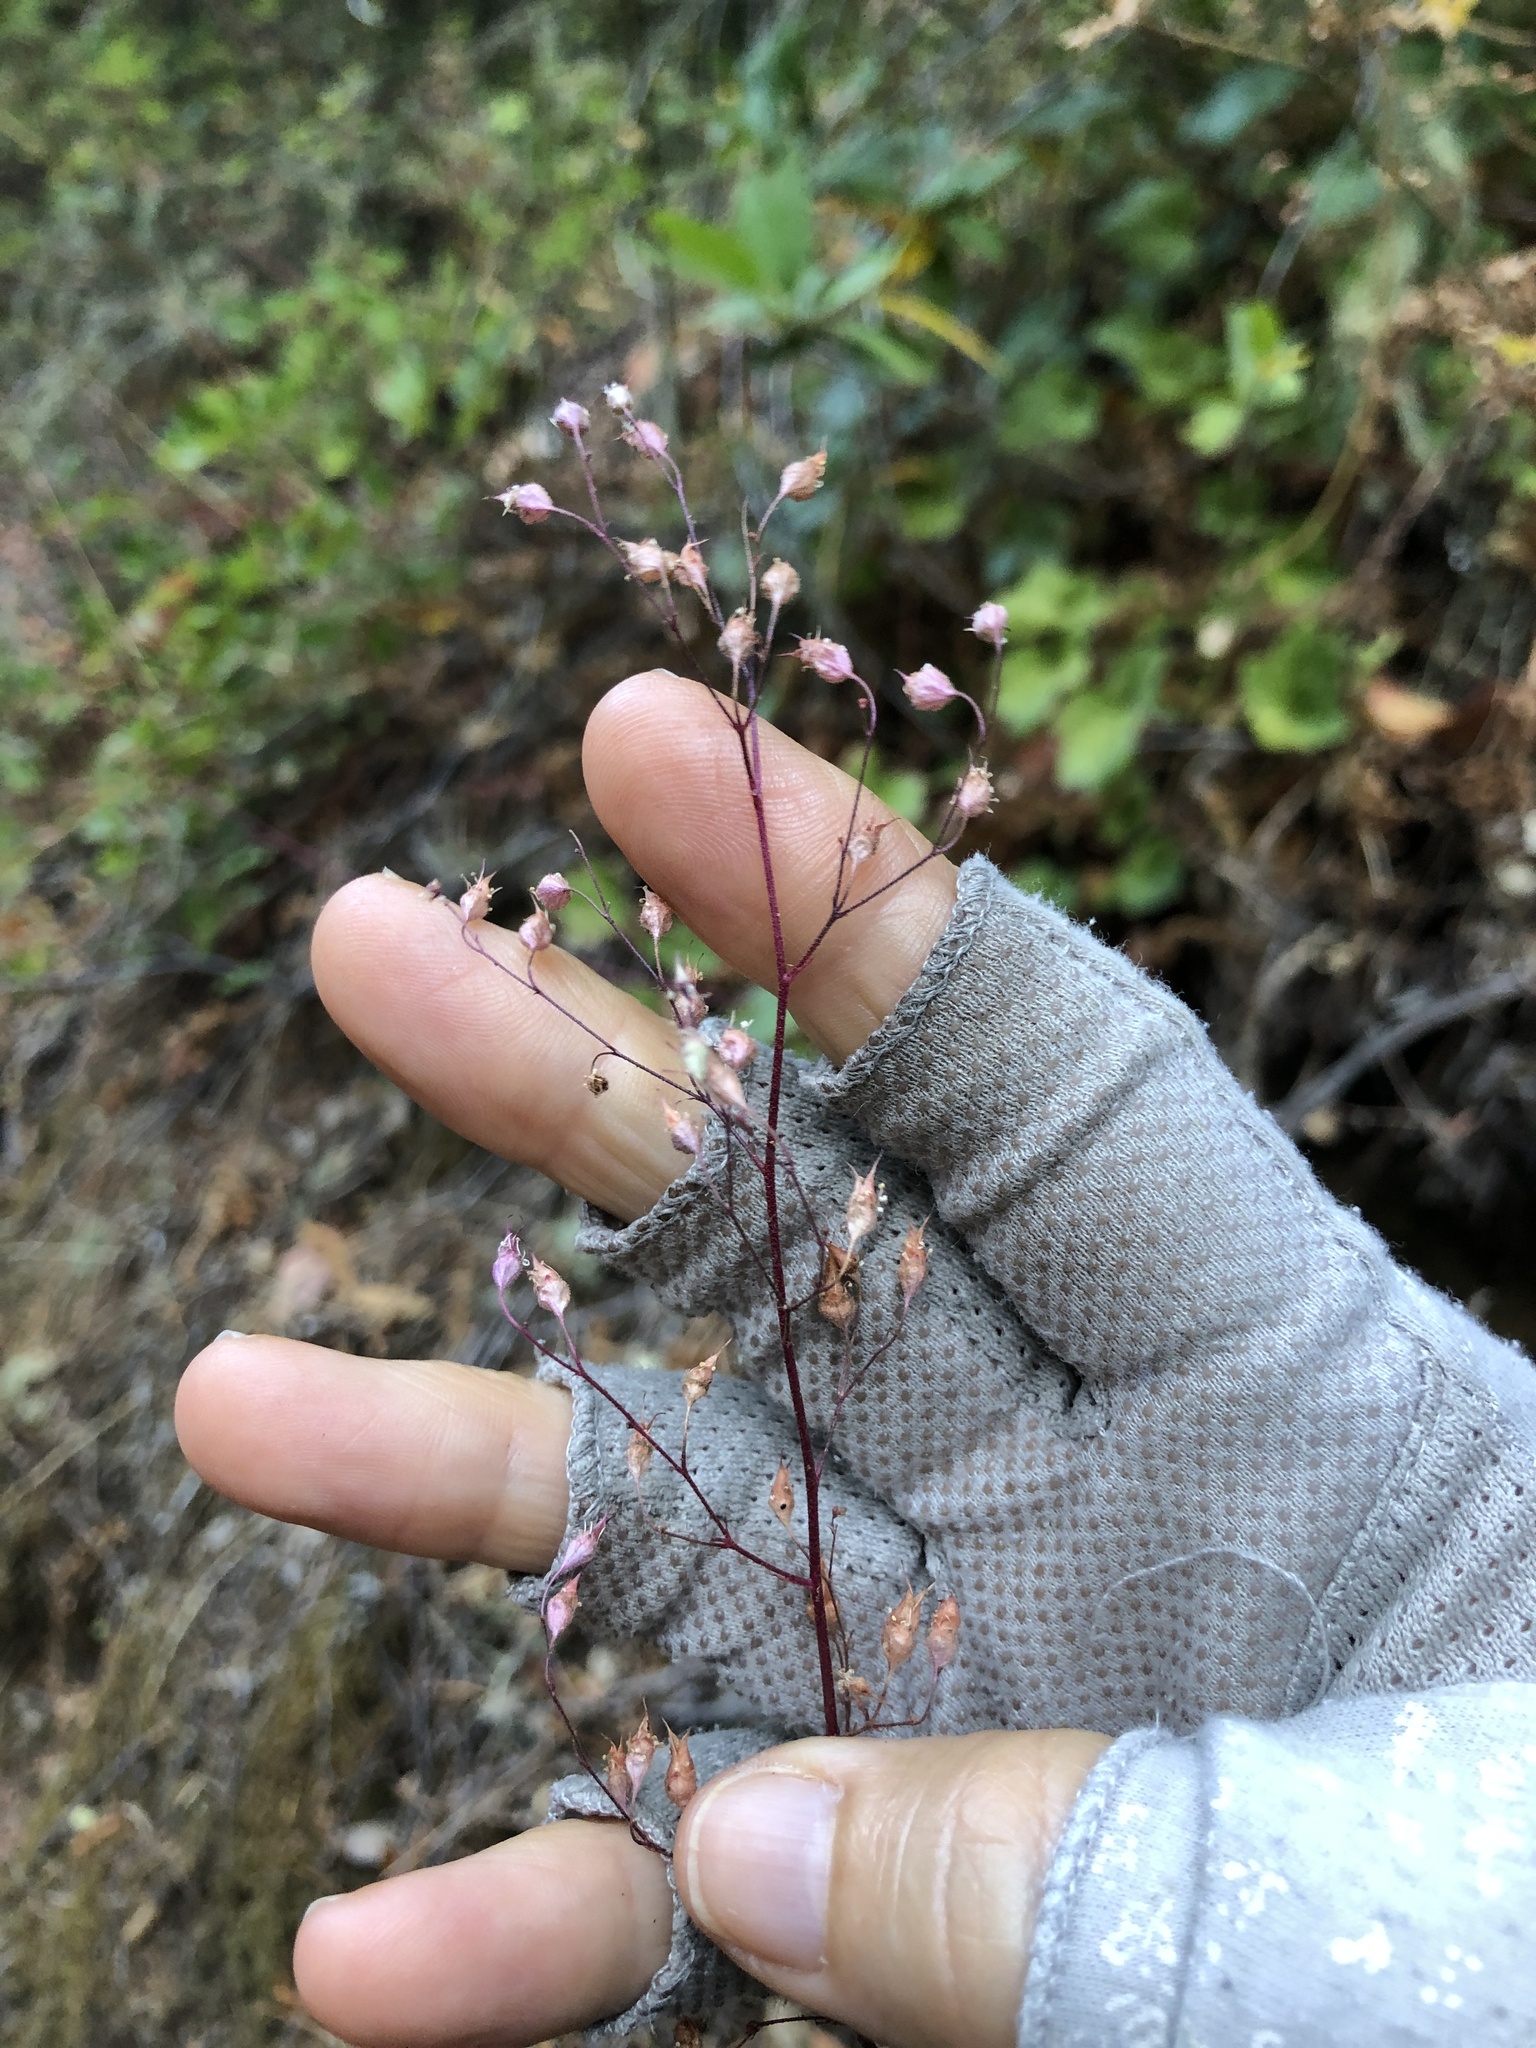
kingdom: Plantae
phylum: Tracheophyta
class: Magnoliopsida
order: Saxifragales
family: Saxifragaceae
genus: Heuchera
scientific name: Heuchera micrantha
